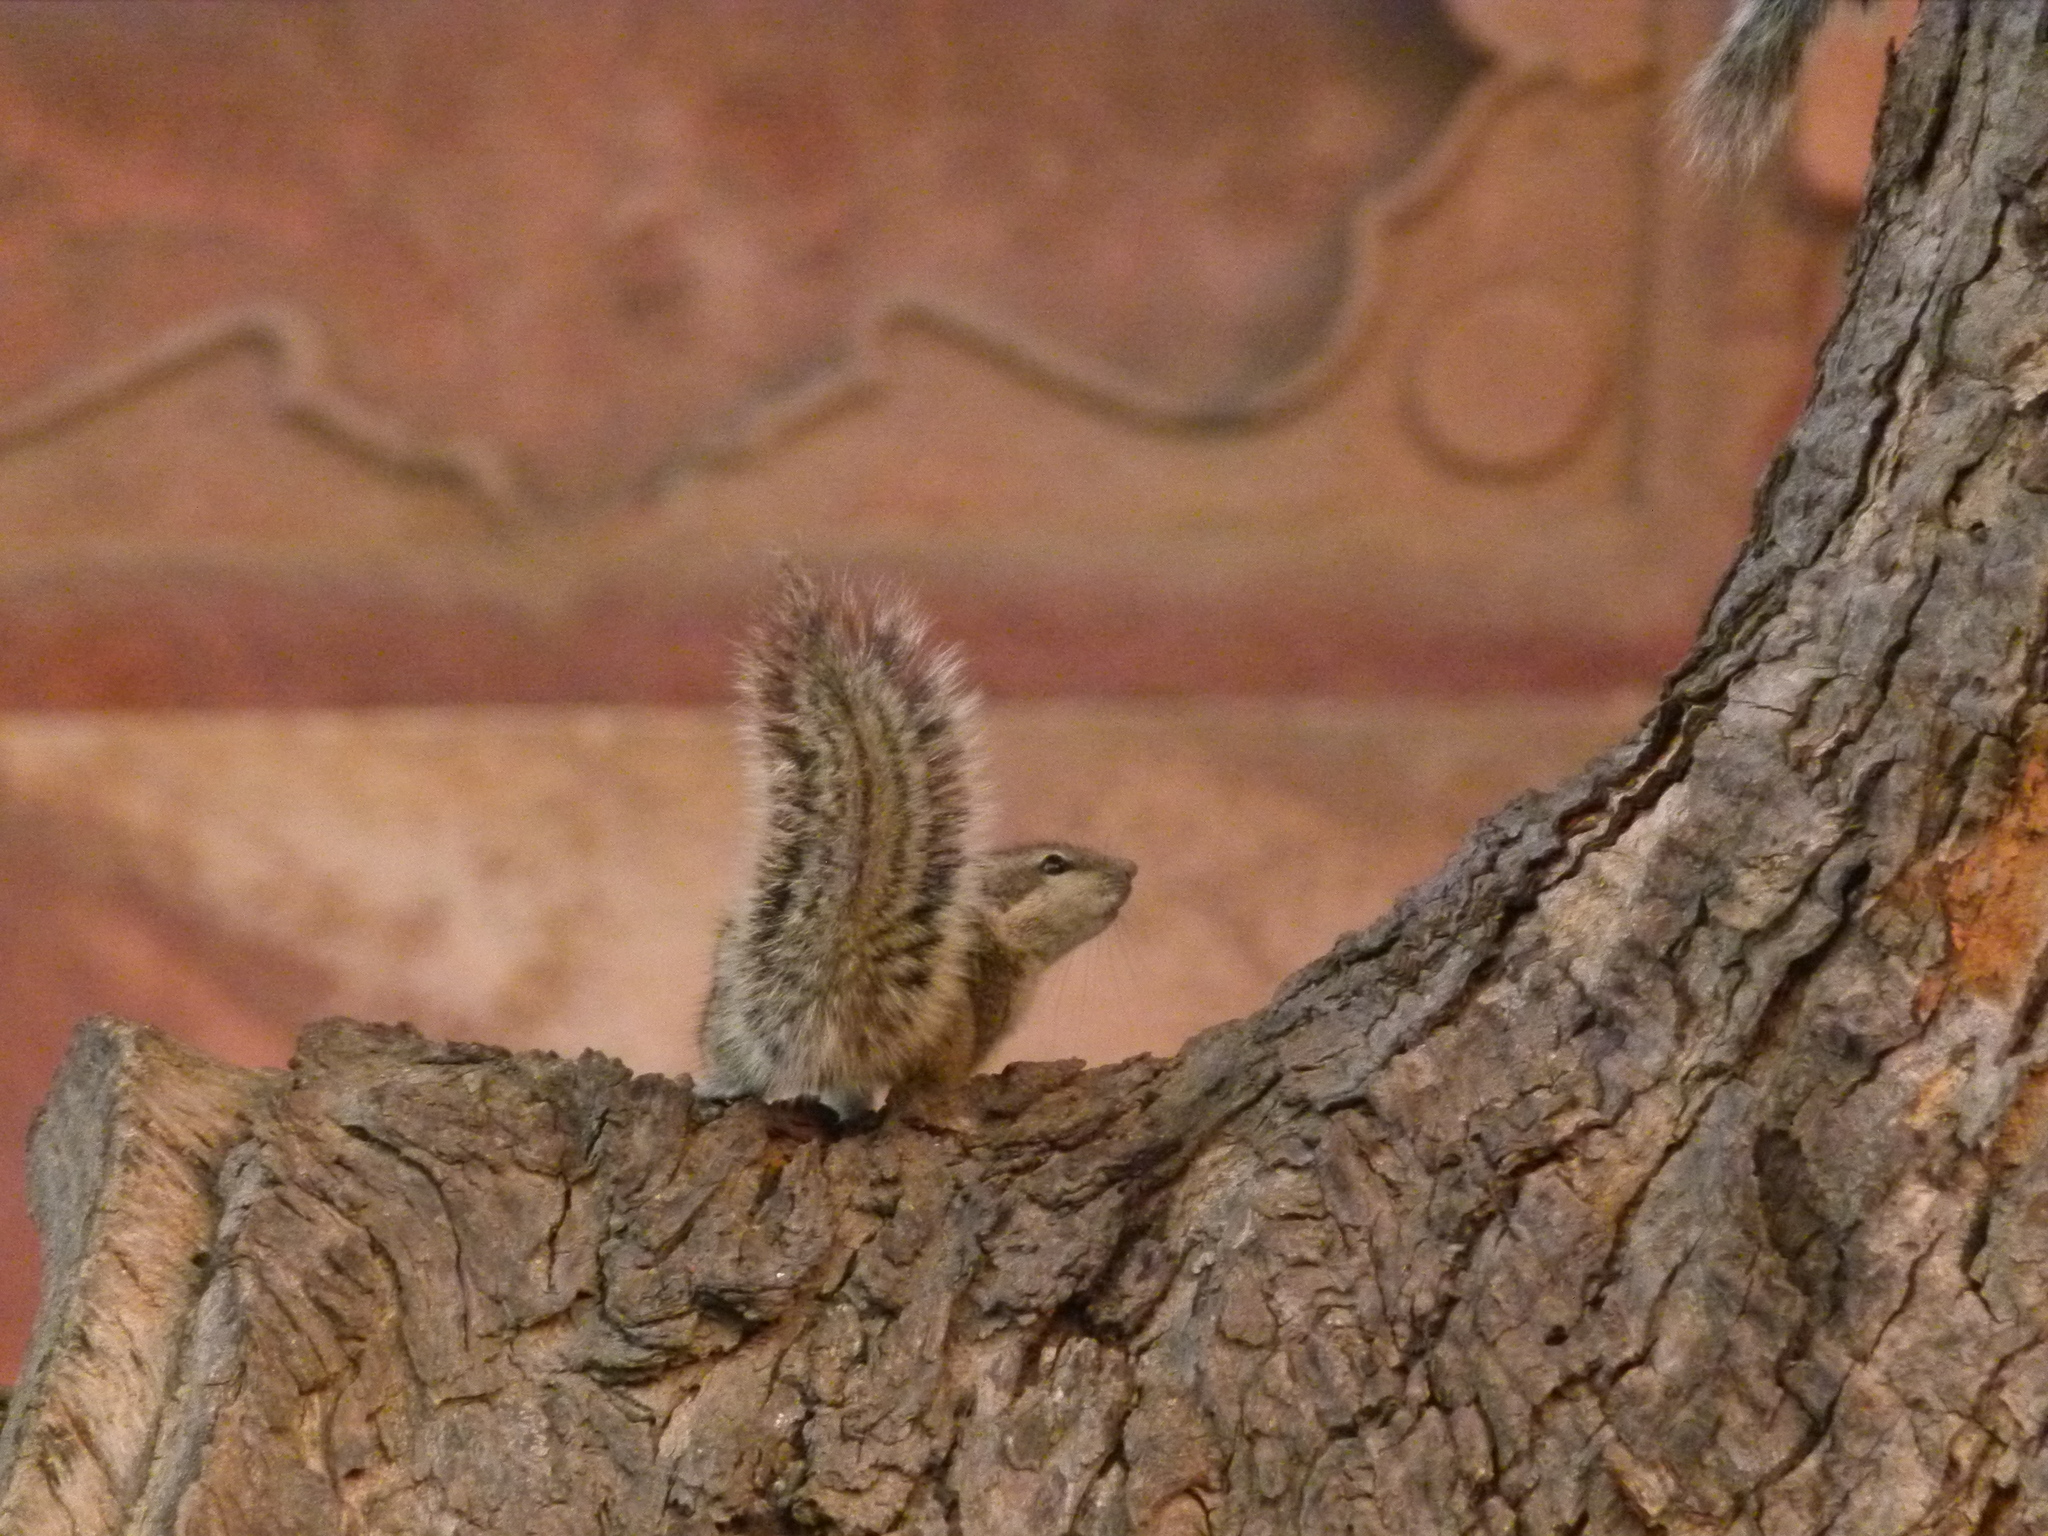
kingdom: Animalia
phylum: Chordata
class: Mammalia
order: Rodentia
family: Sciuridae
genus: Funambulus
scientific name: Funambulus pennantii
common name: Northern palm squirrel
